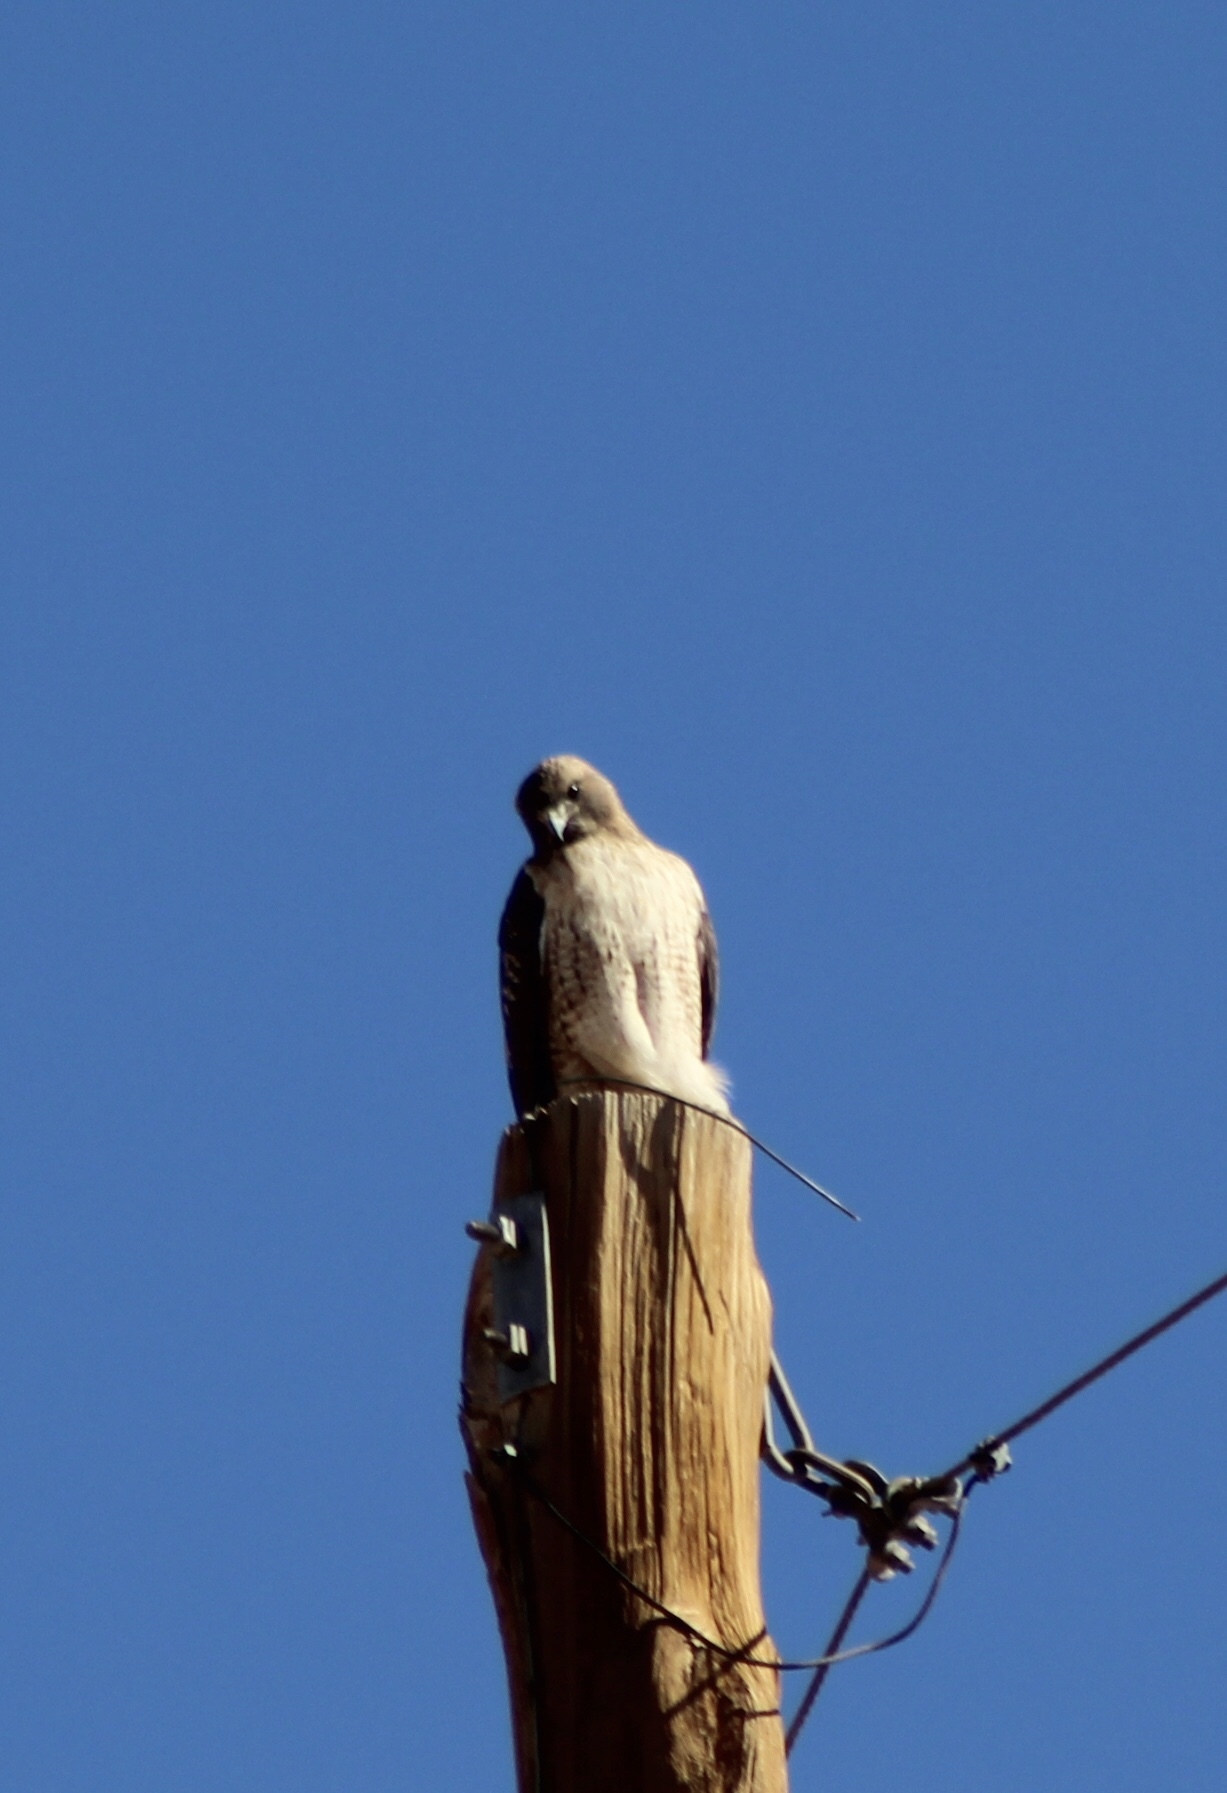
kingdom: Animalia
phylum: Chordata
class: Aves
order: Accipitriformes
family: Accipitridae
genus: Buteo
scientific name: Buteo jamaicensis
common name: Red-tailed hawk
